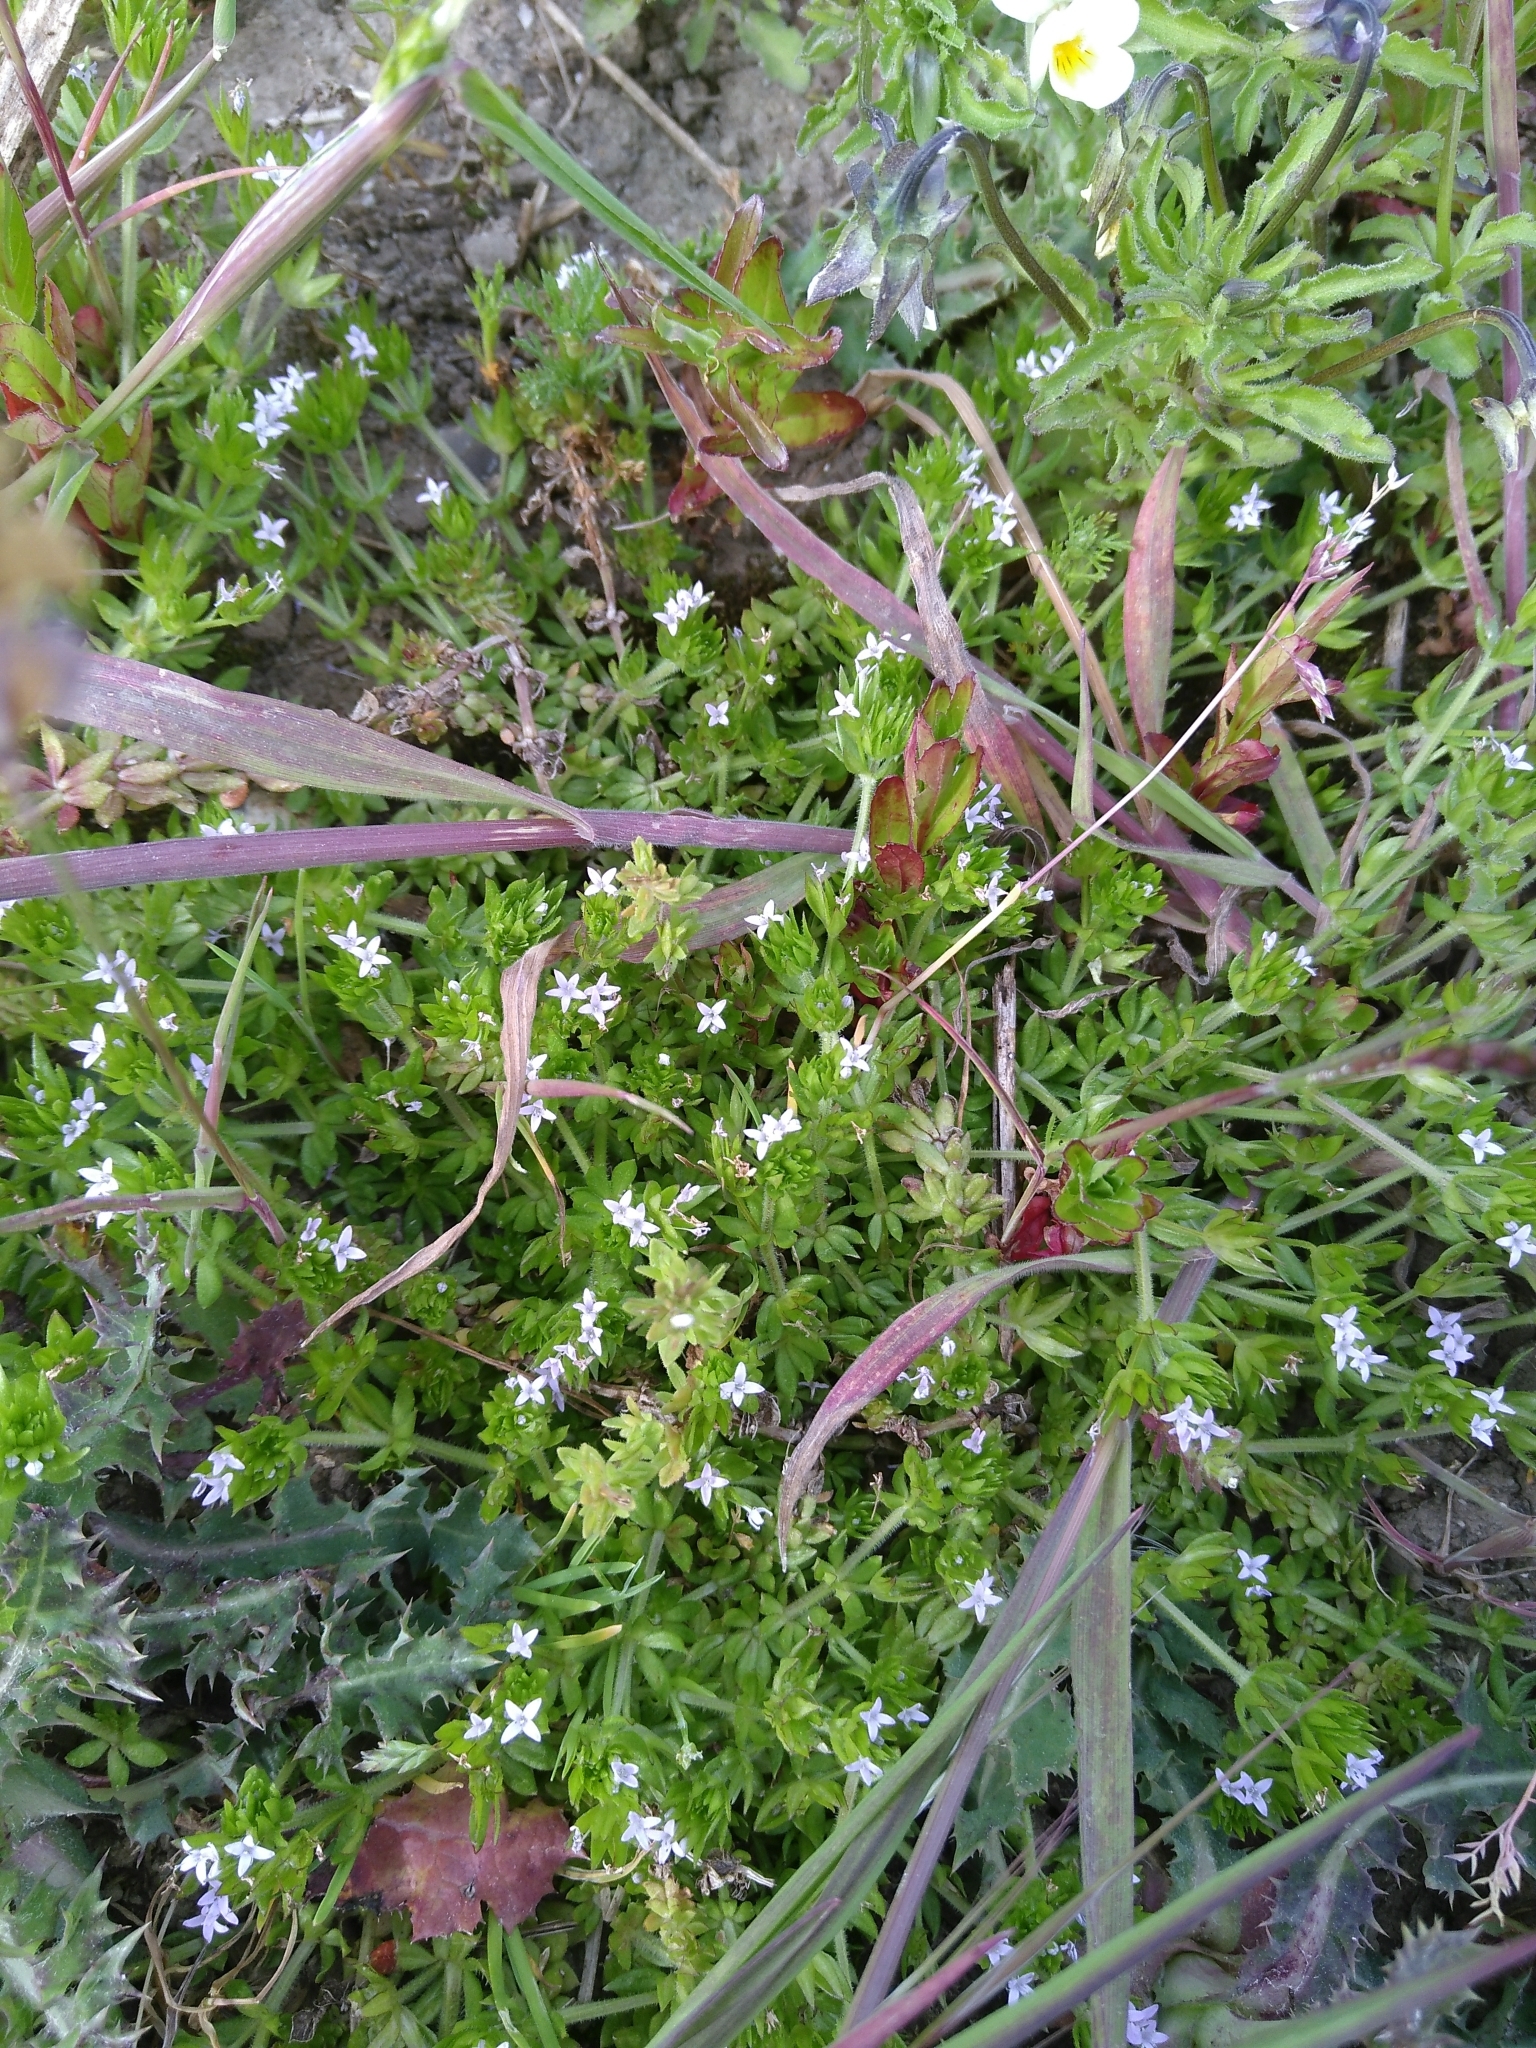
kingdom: Plantae
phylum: Tracheophyta
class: Magnoliopsida
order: Gentianales
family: Rubiaceae
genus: Sherardia
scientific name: Sherardia arvensis
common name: Field madder
